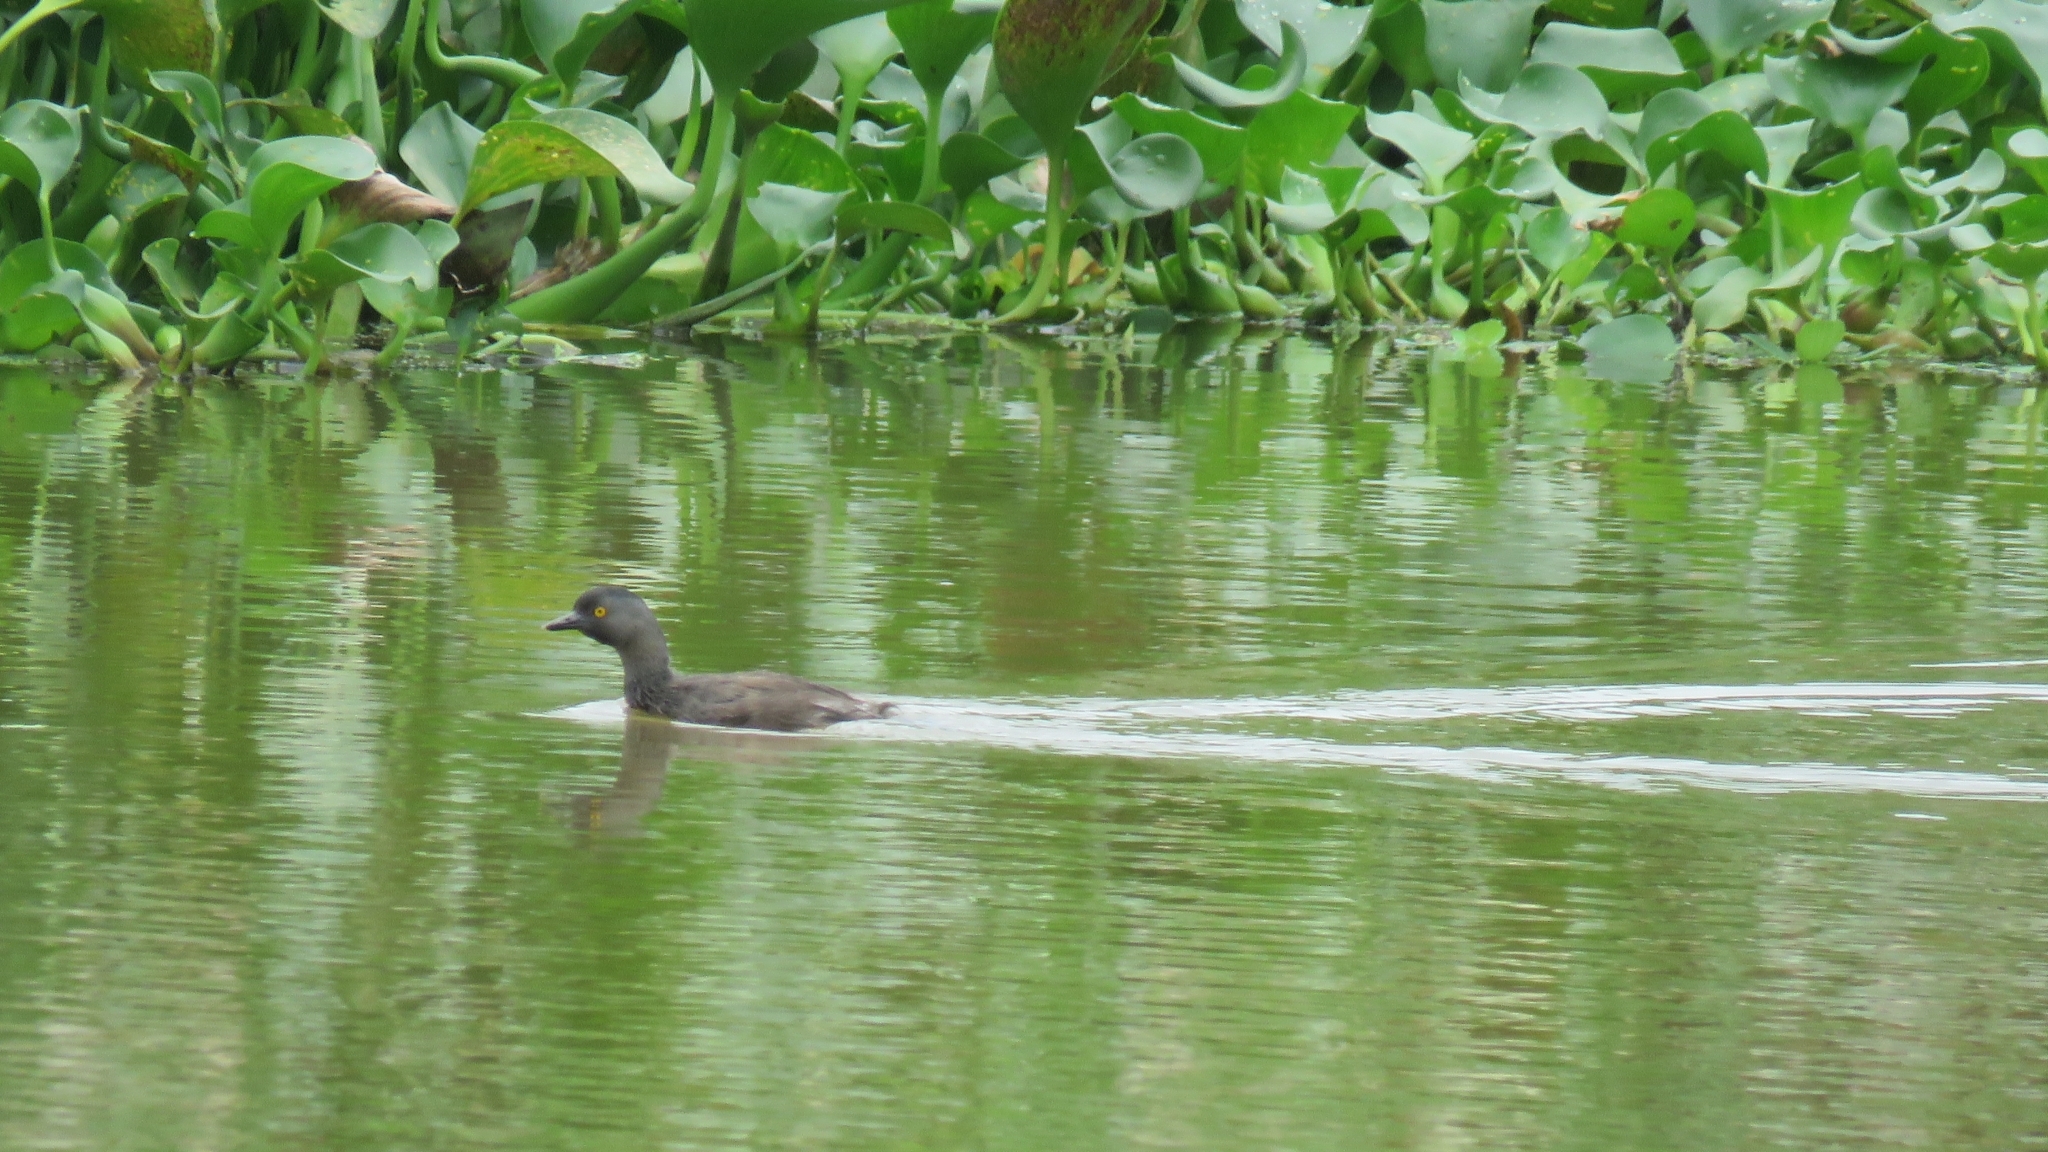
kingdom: Animalia
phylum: Chordata
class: Aves
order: Podicipediformes
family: Podicipedidae
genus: Tachybaptus
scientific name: Tachybaptus dominicus
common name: Least grebe
